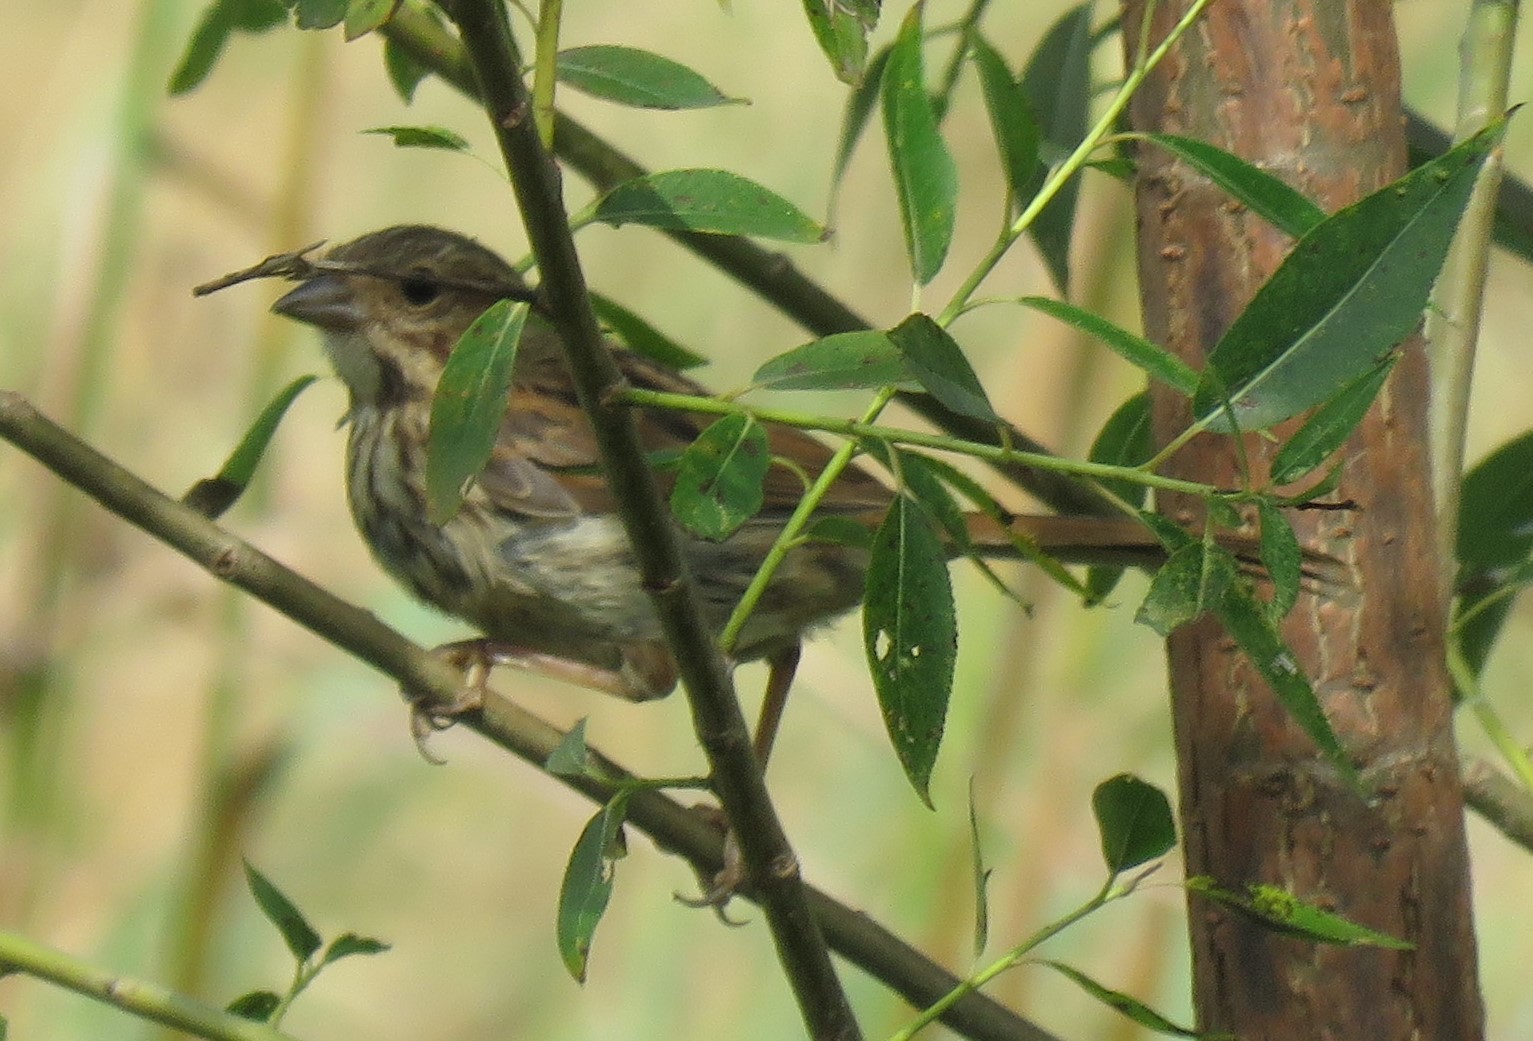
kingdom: Animalia
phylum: Chordata
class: Aves
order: Passeriformes
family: Passerellidae
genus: Melospiza
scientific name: Melospiza melodia
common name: Song sparrow
